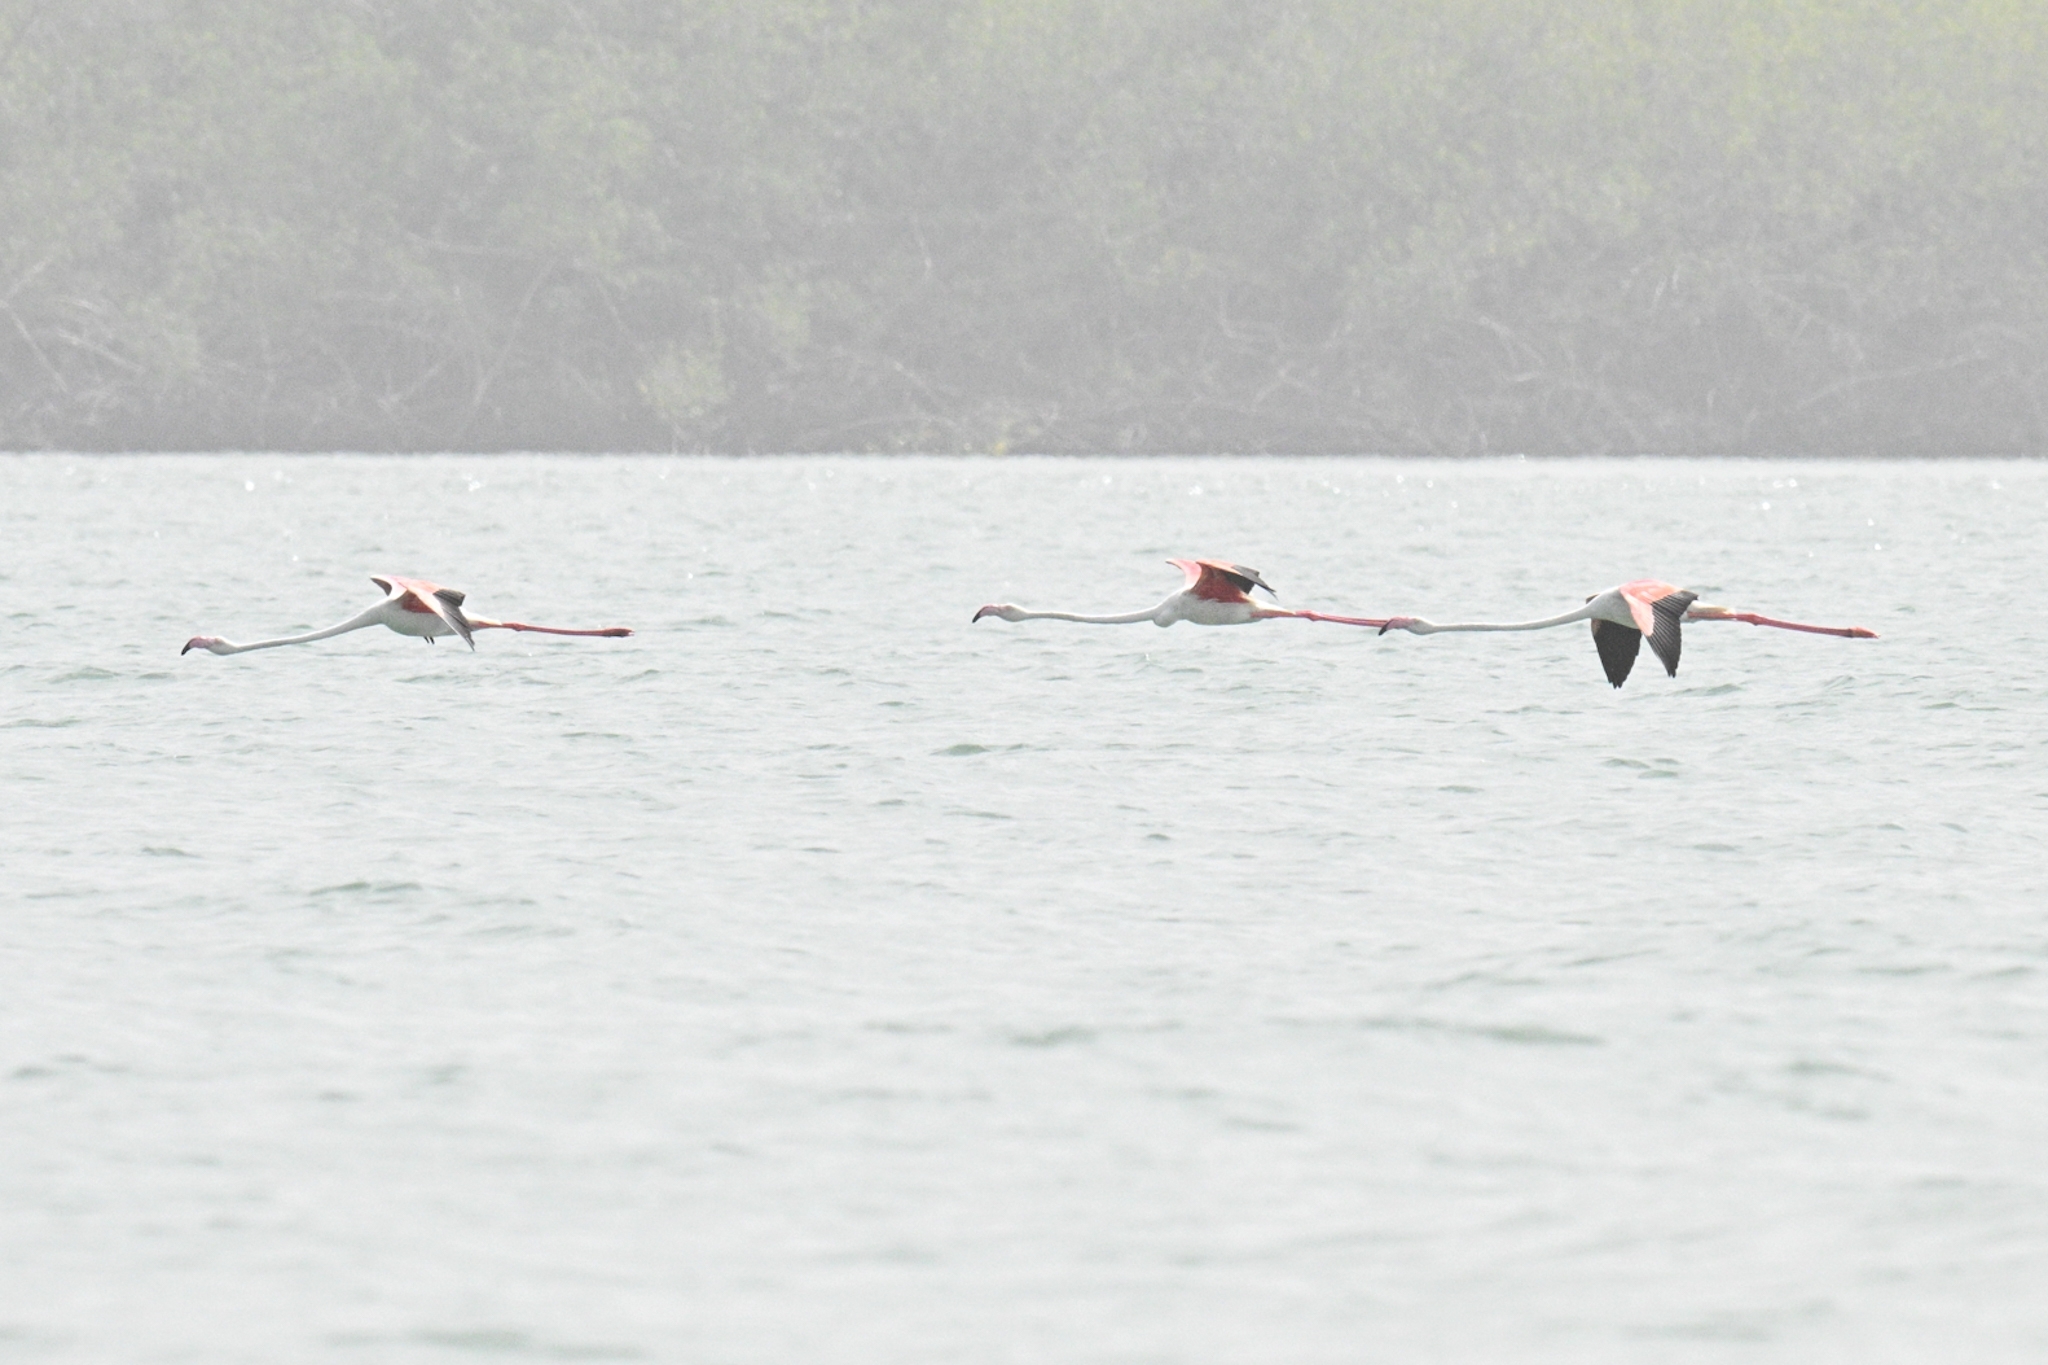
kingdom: Animalia
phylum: Chordata
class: Aves
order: Phoenicopteriformes
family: Phoenicopteridae
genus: Phoenicopterus
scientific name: Phoenicopterus roseus
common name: Greater flamingo
